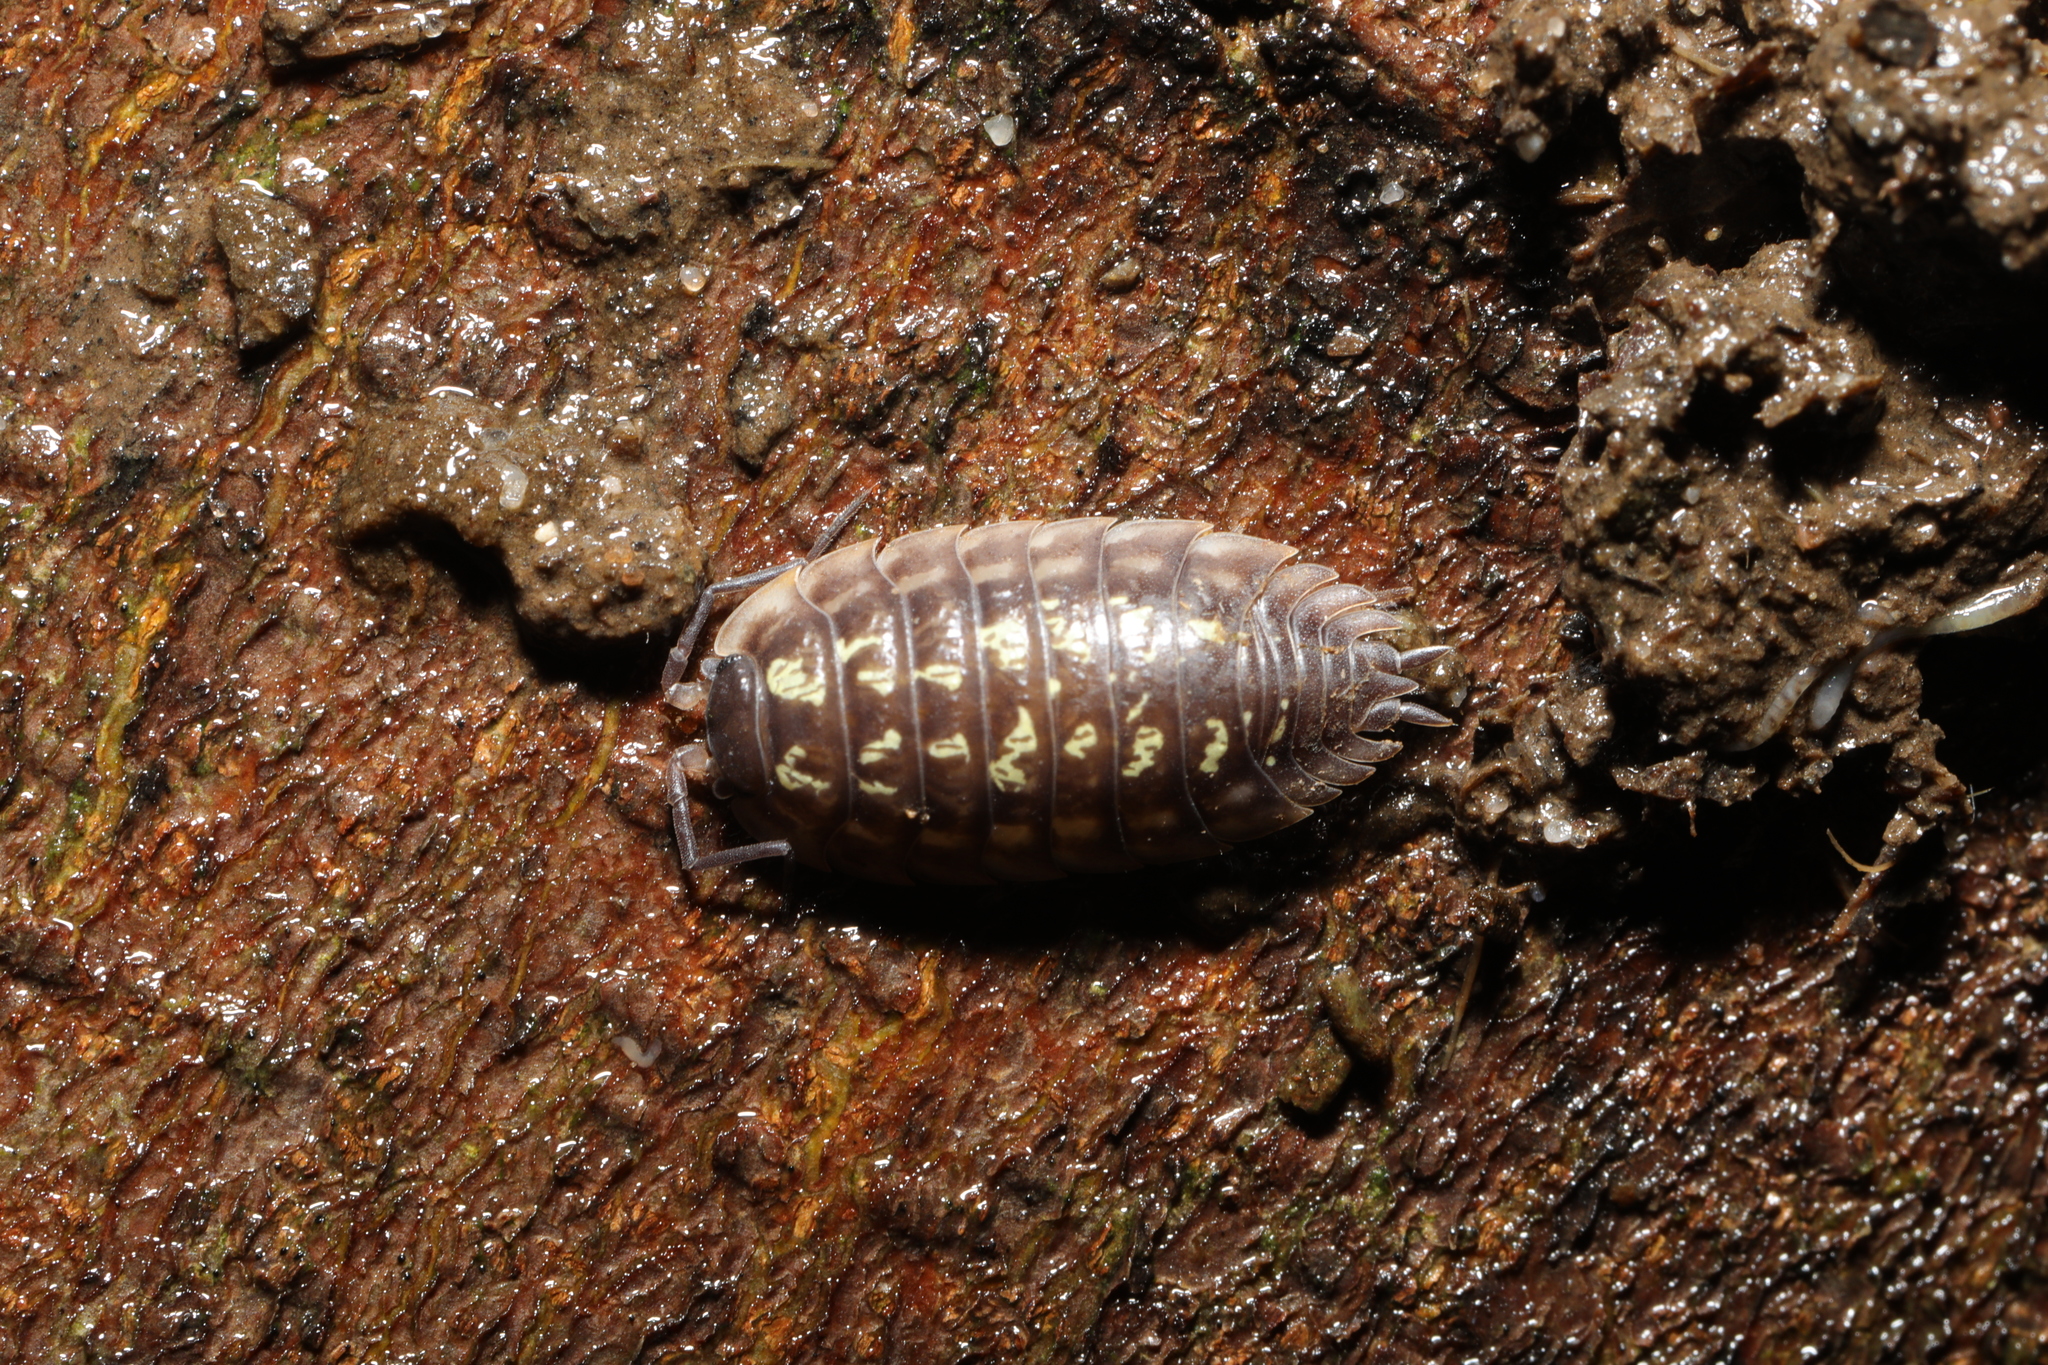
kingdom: Animalia
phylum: Arthropoda
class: Malacostraca
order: Isopoda
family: Oniscidae
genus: Oniscus
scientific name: Oniscus asellus
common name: Common shiny woodlouse
